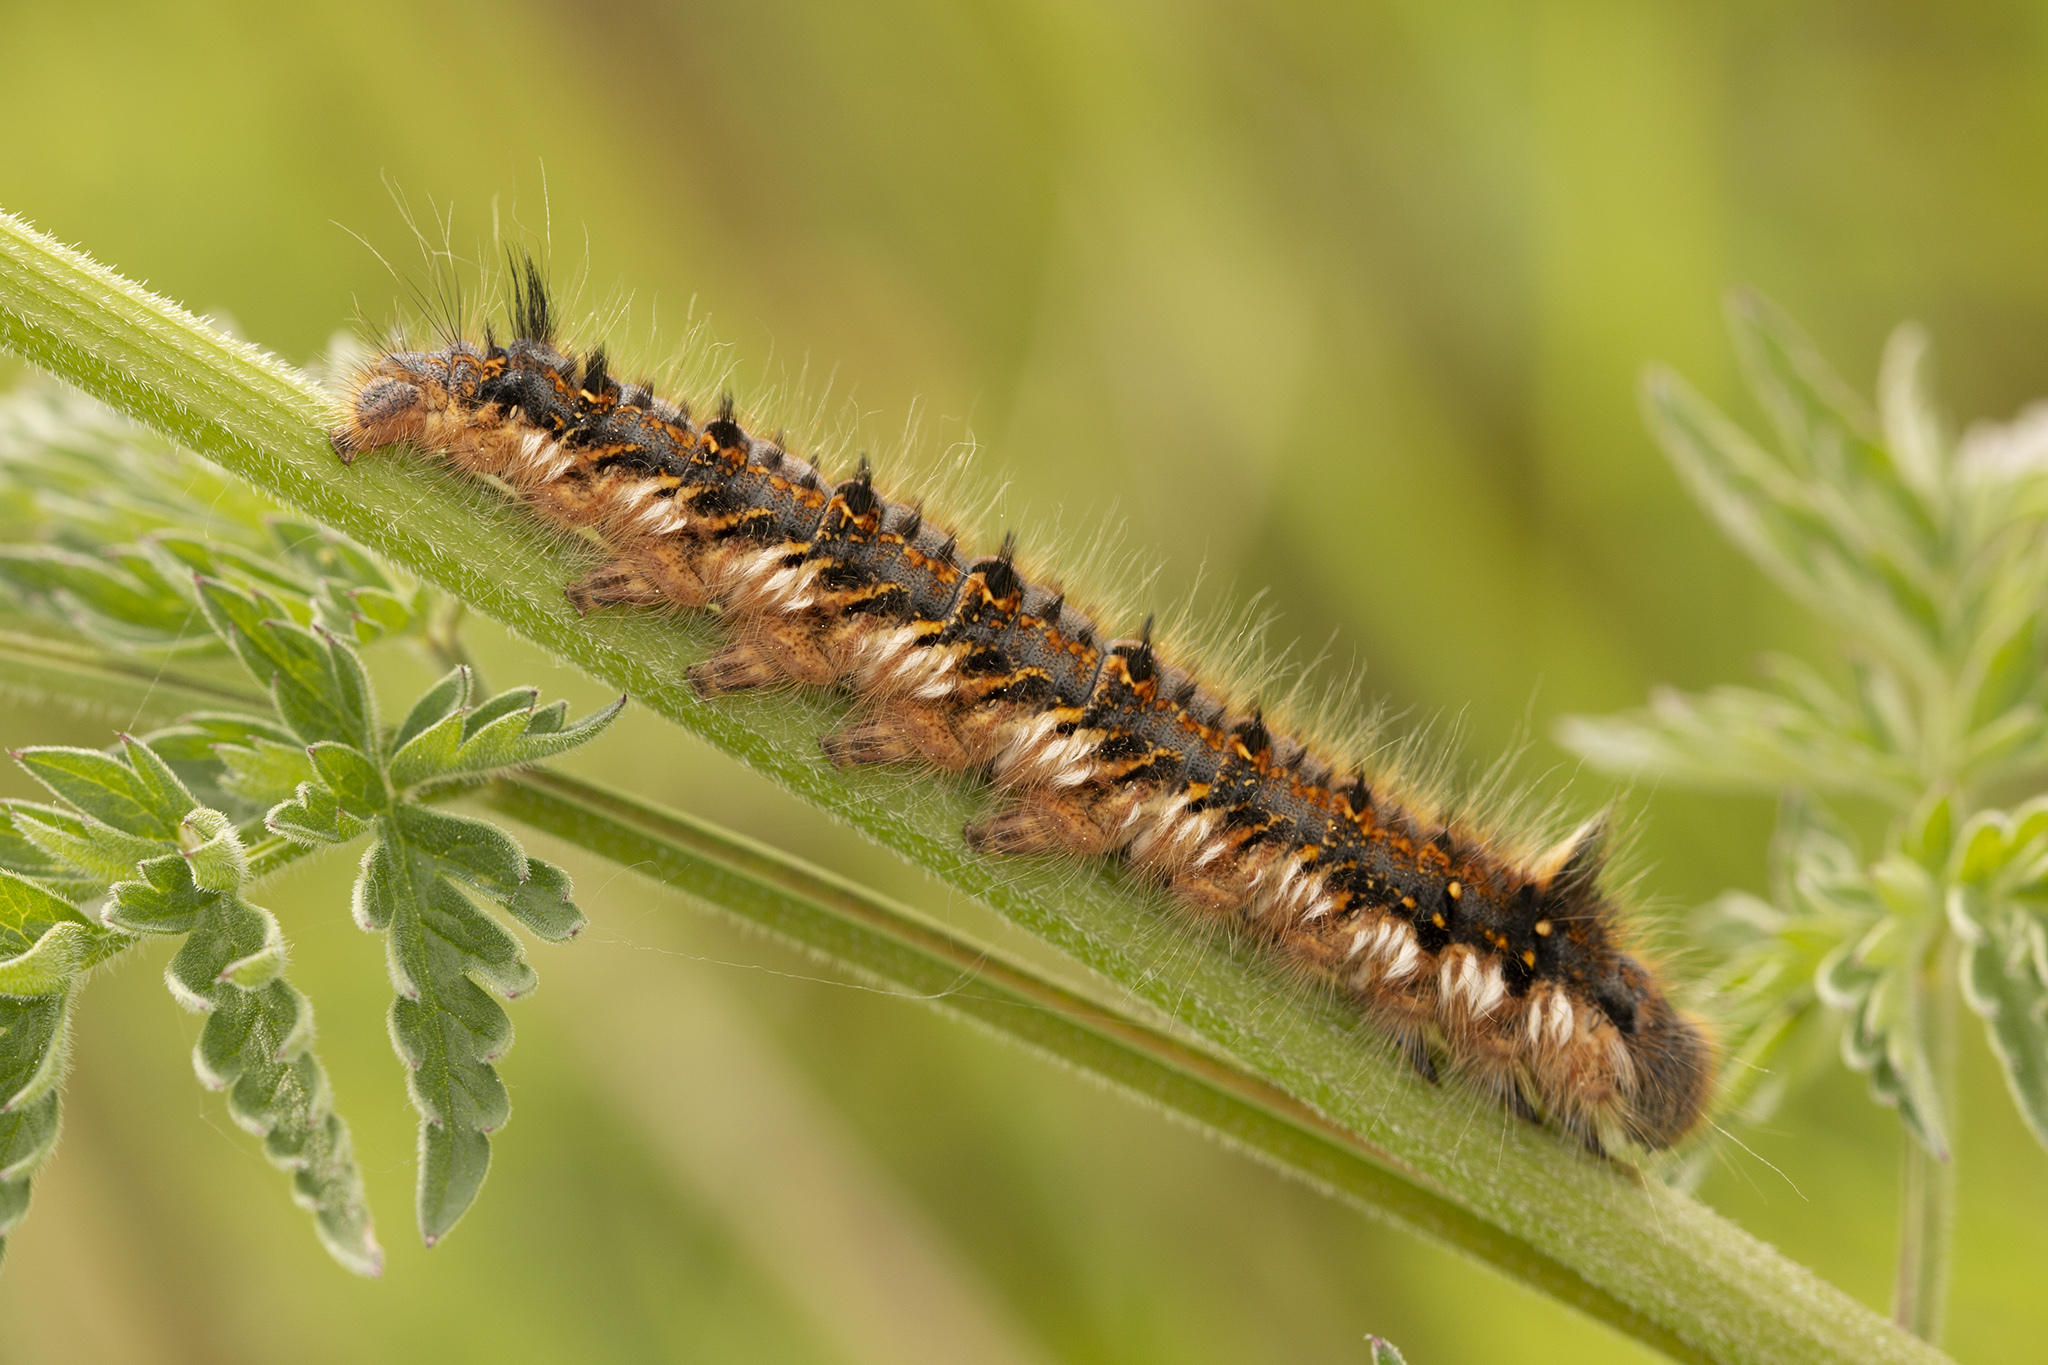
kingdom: Animalia
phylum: Arthropoda
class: Insecta
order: Lepidoptera
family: Lasiocampidae
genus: Euthrix
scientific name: Euthrix potatoria
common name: Drinker
